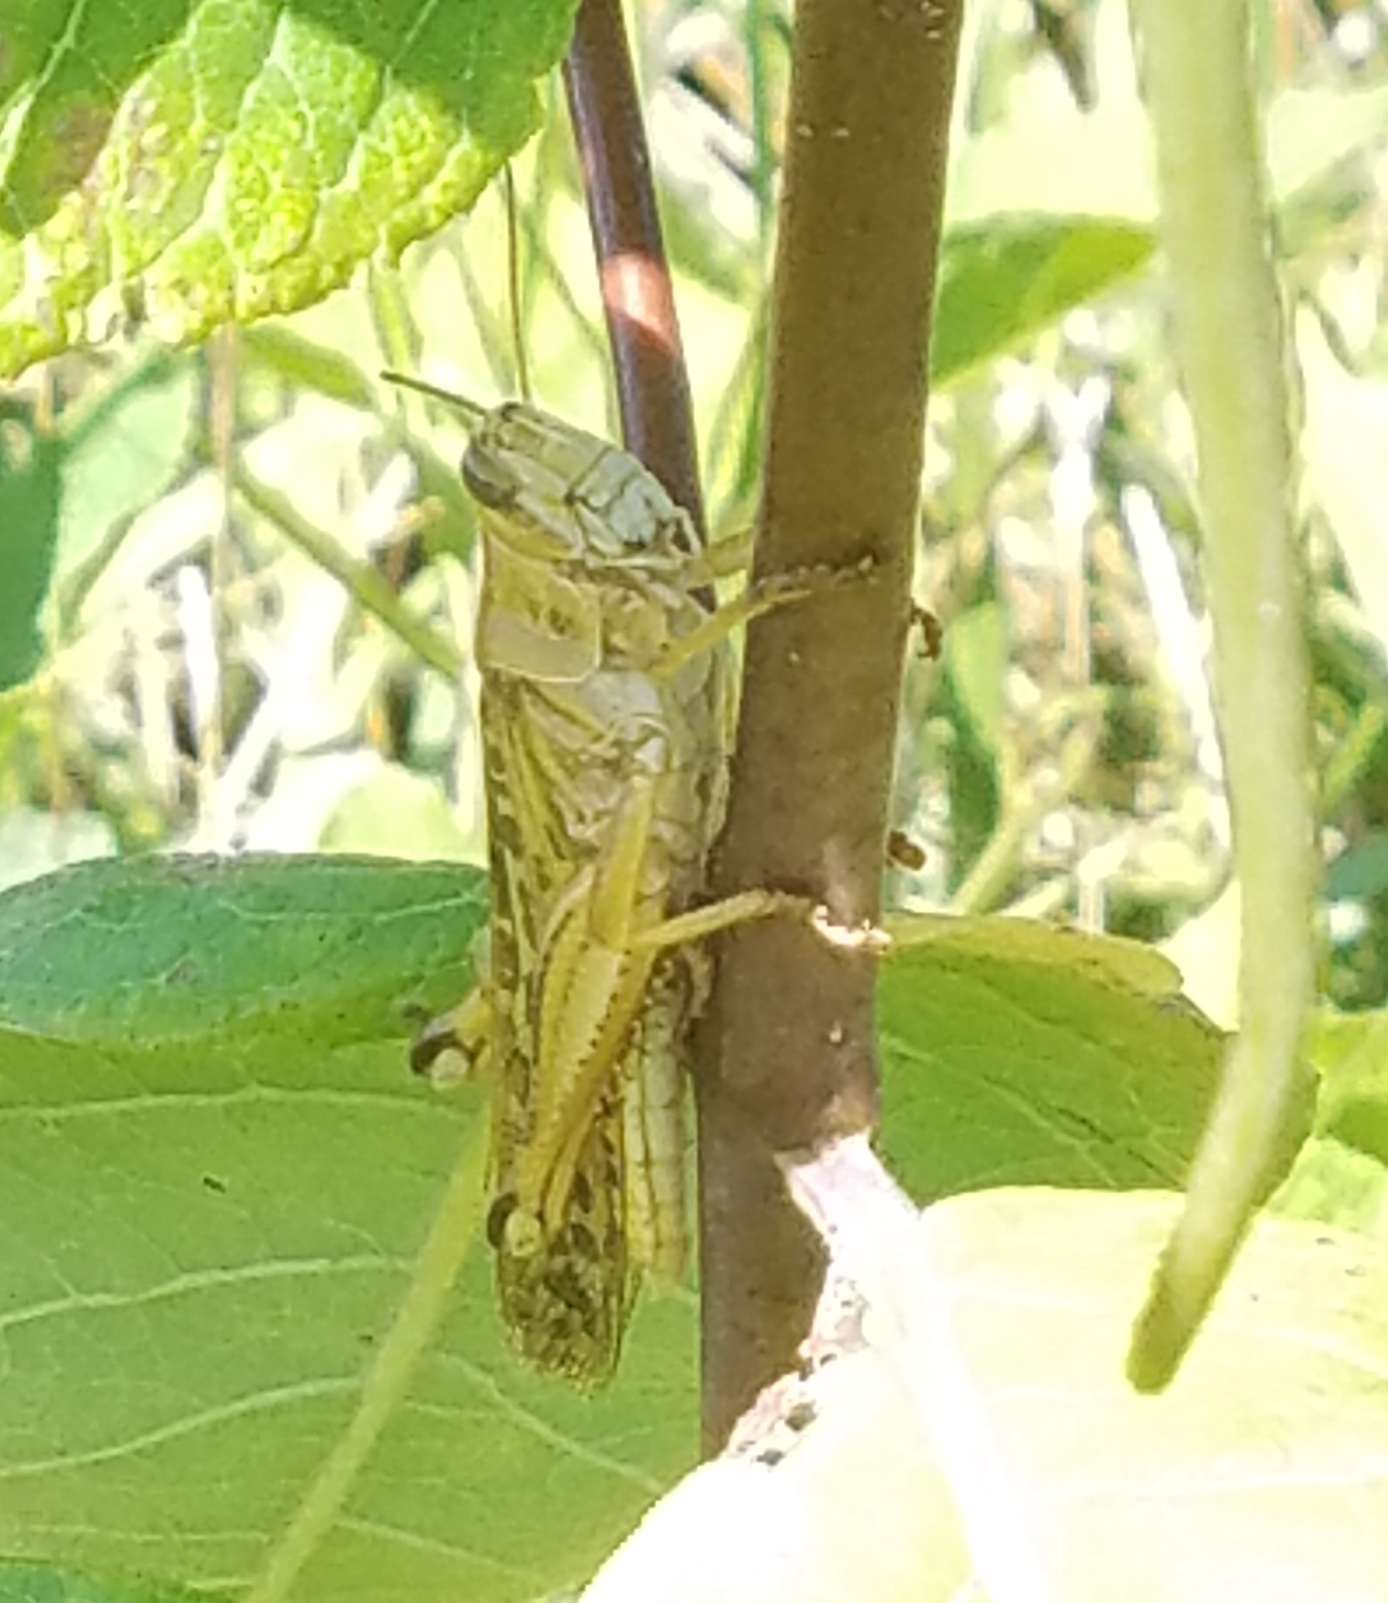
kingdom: Animalia
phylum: Arthropoda
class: Insecta
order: Orthoptera
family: Acrididae
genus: Schistocerca
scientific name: Schistocerca americana
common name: American bird locust
